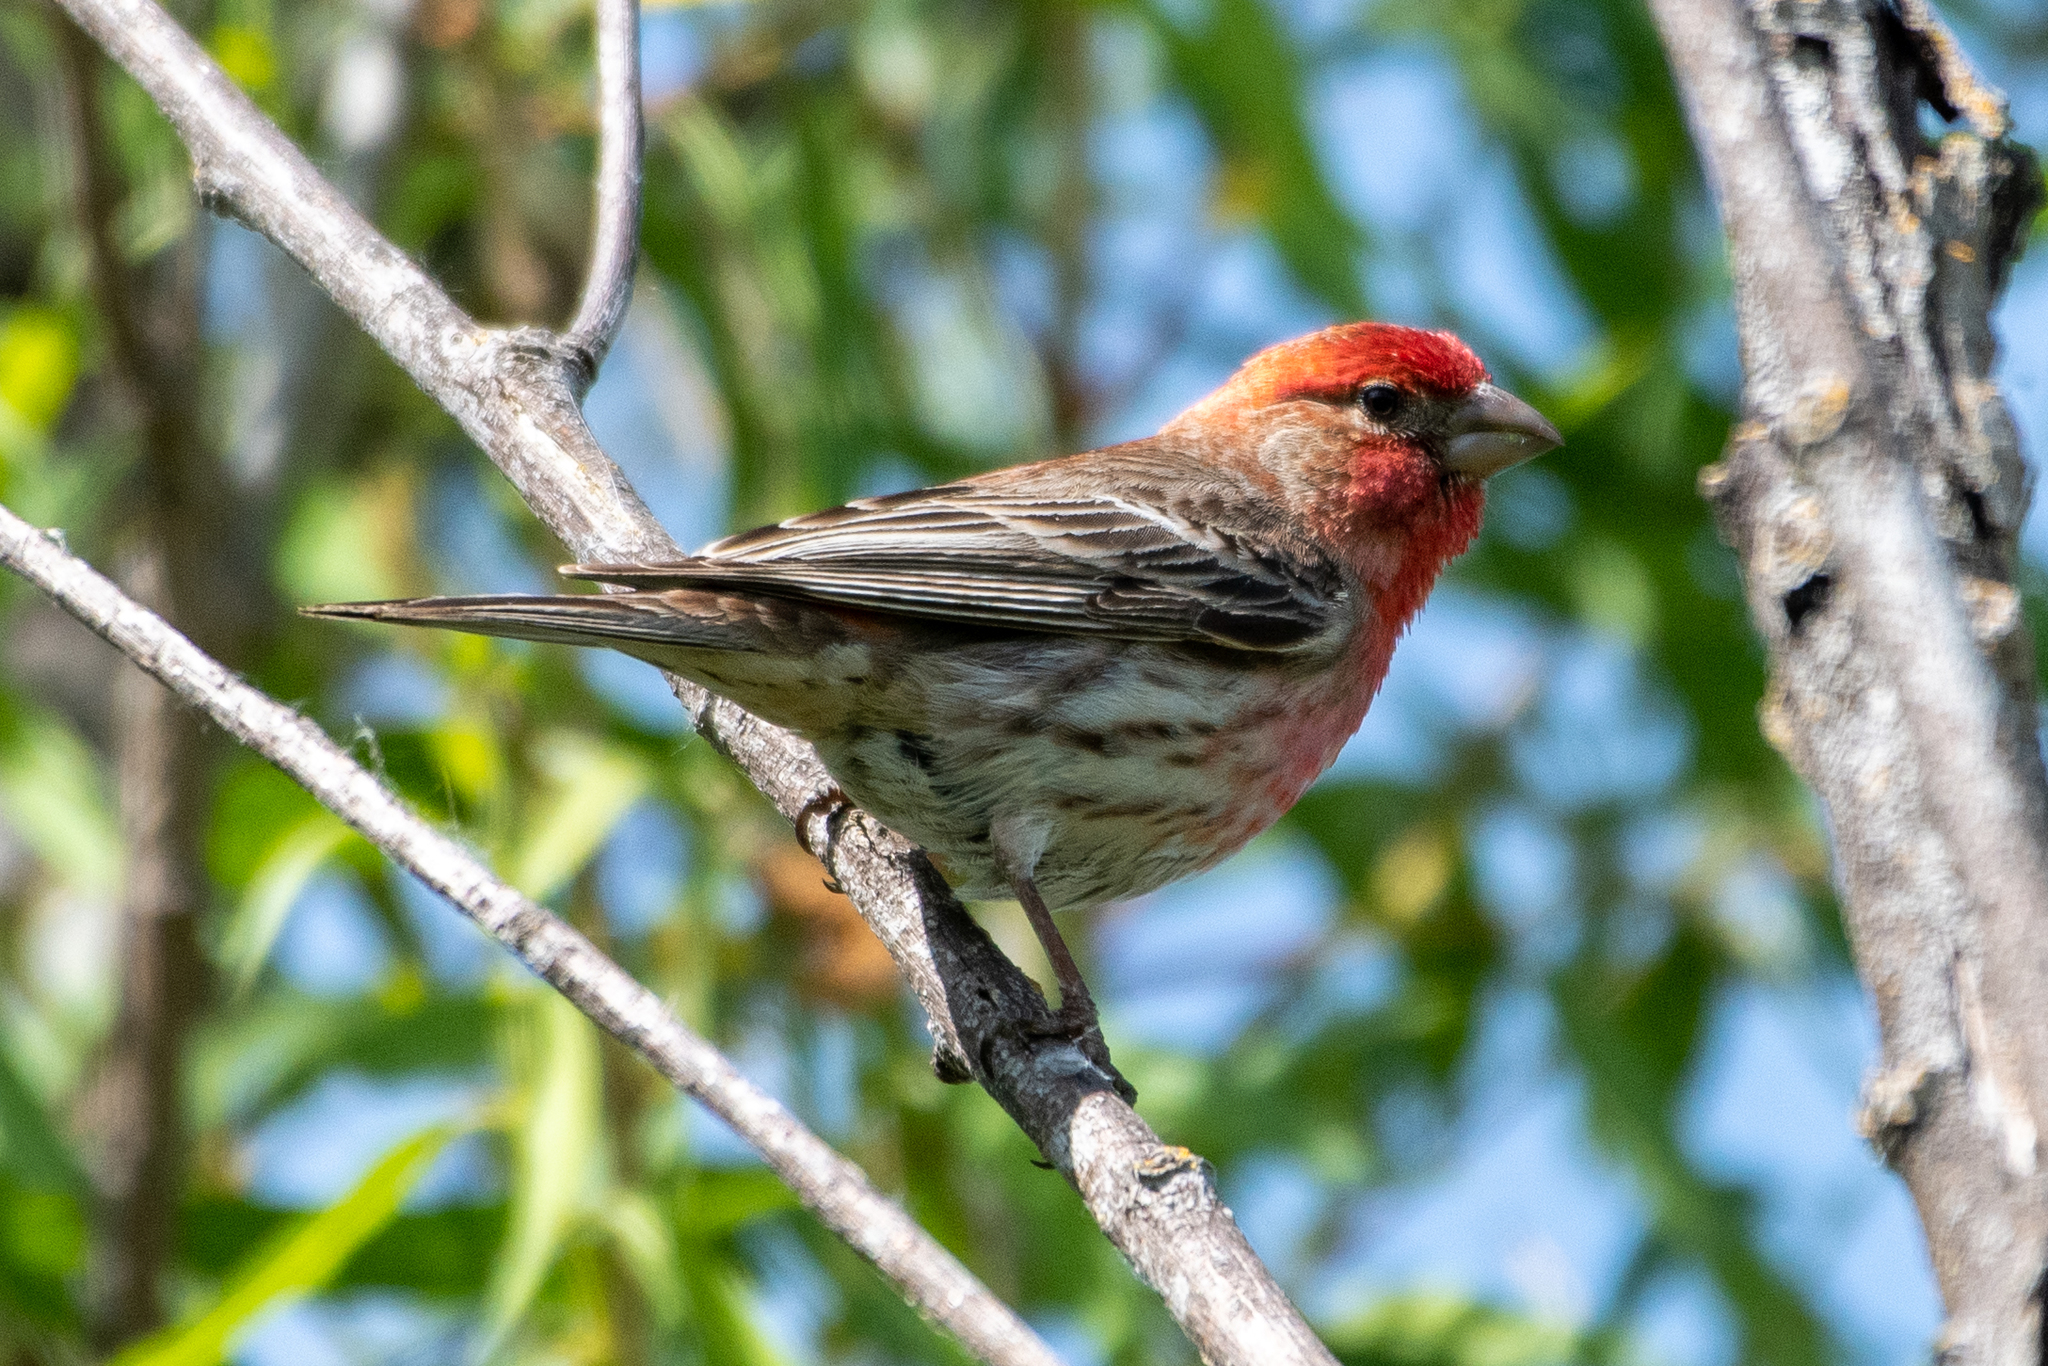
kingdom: Animalia
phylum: Chordata
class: Aves
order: Passeriformes
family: Fringillidae
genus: Haemorhous
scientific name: Haemorhous mexicanus
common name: House finch
